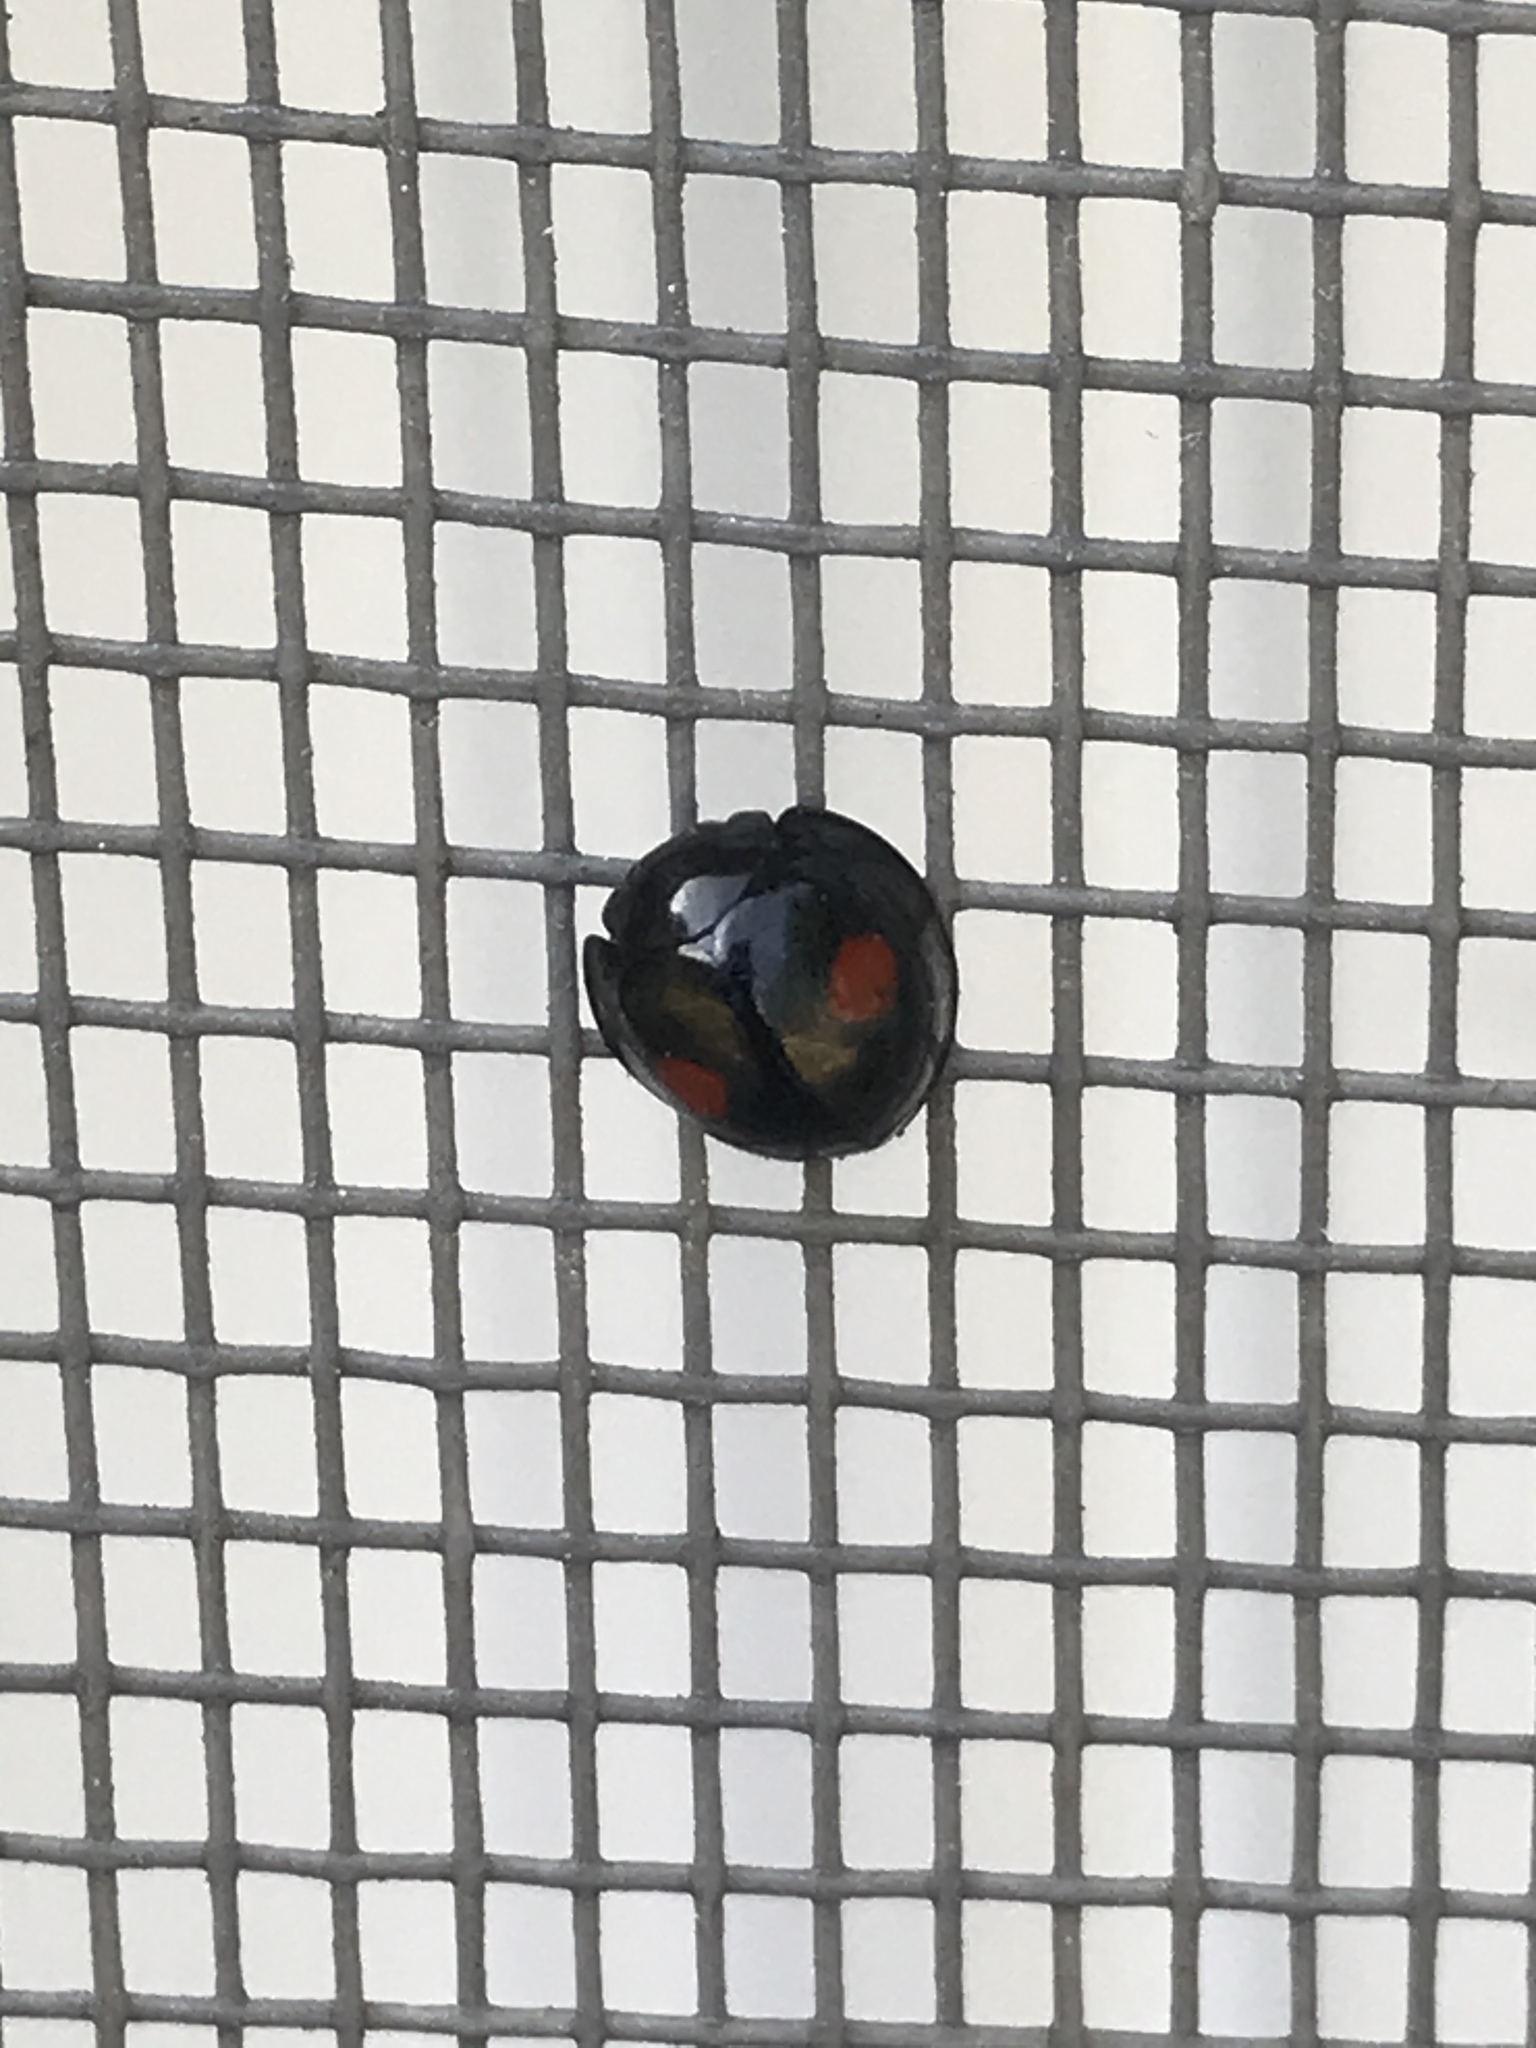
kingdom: Animalia
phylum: Arthropoda
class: Insecta
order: Coleoptera
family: Coccinellidae
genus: Chilocorus
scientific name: Chilocorus stigma
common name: Twicestabbed lady beetle
